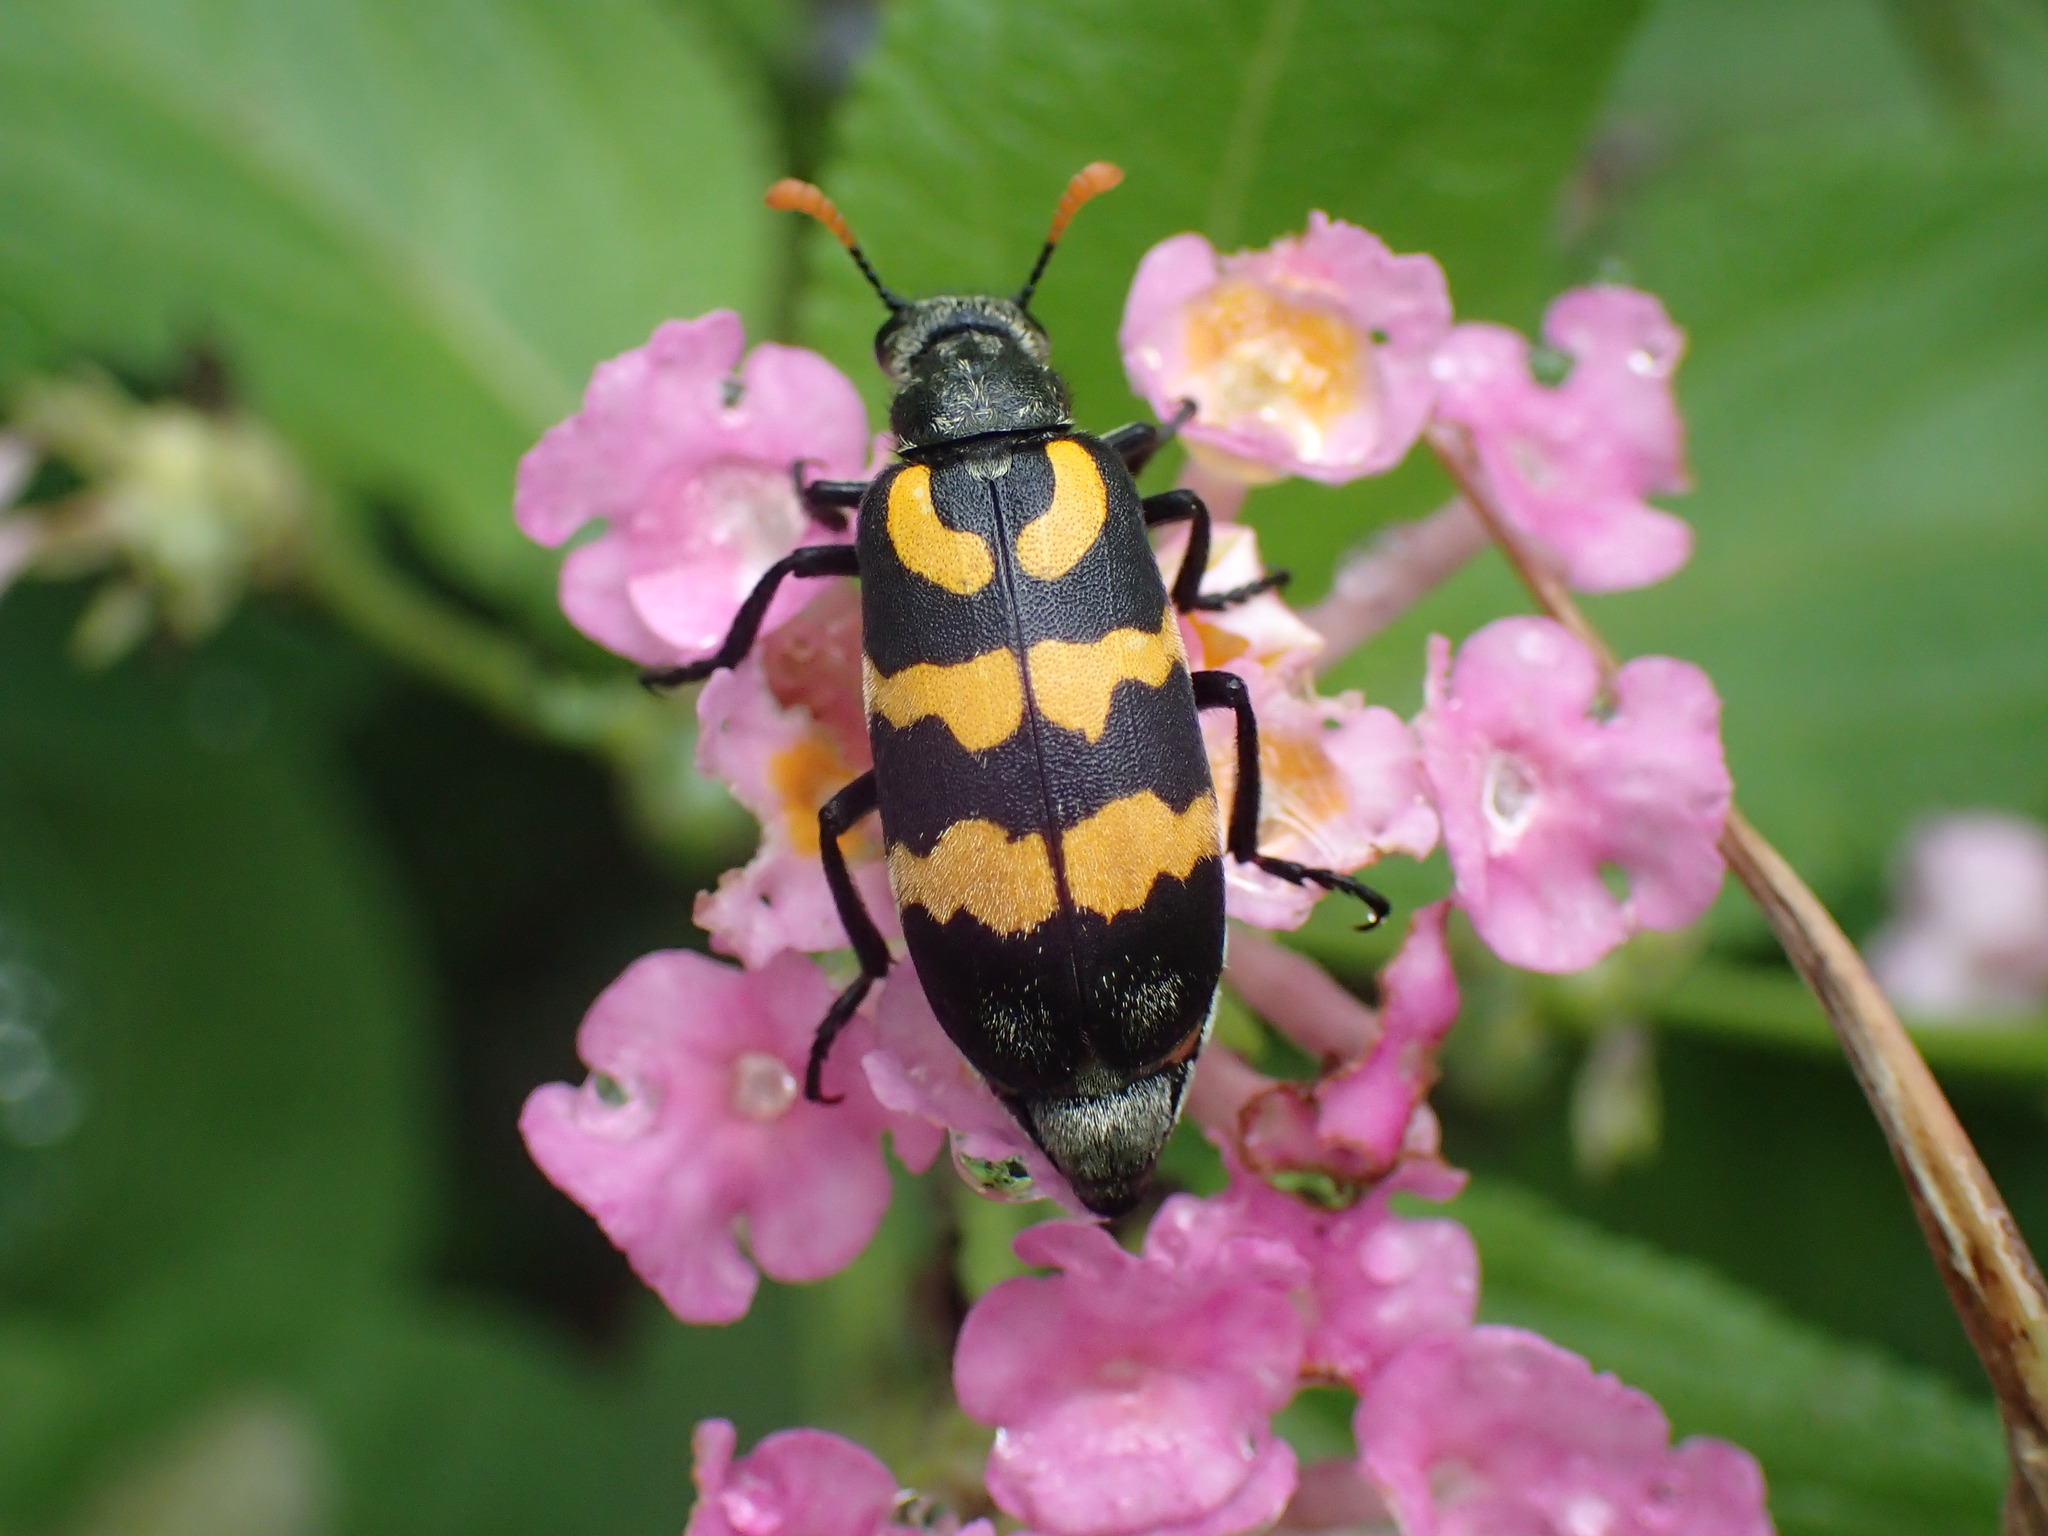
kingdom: Animalia
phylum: Arthropoda
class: Insecta
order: Coleoptera
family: Meloidae
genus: Meloe
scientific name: Meloe lunata
